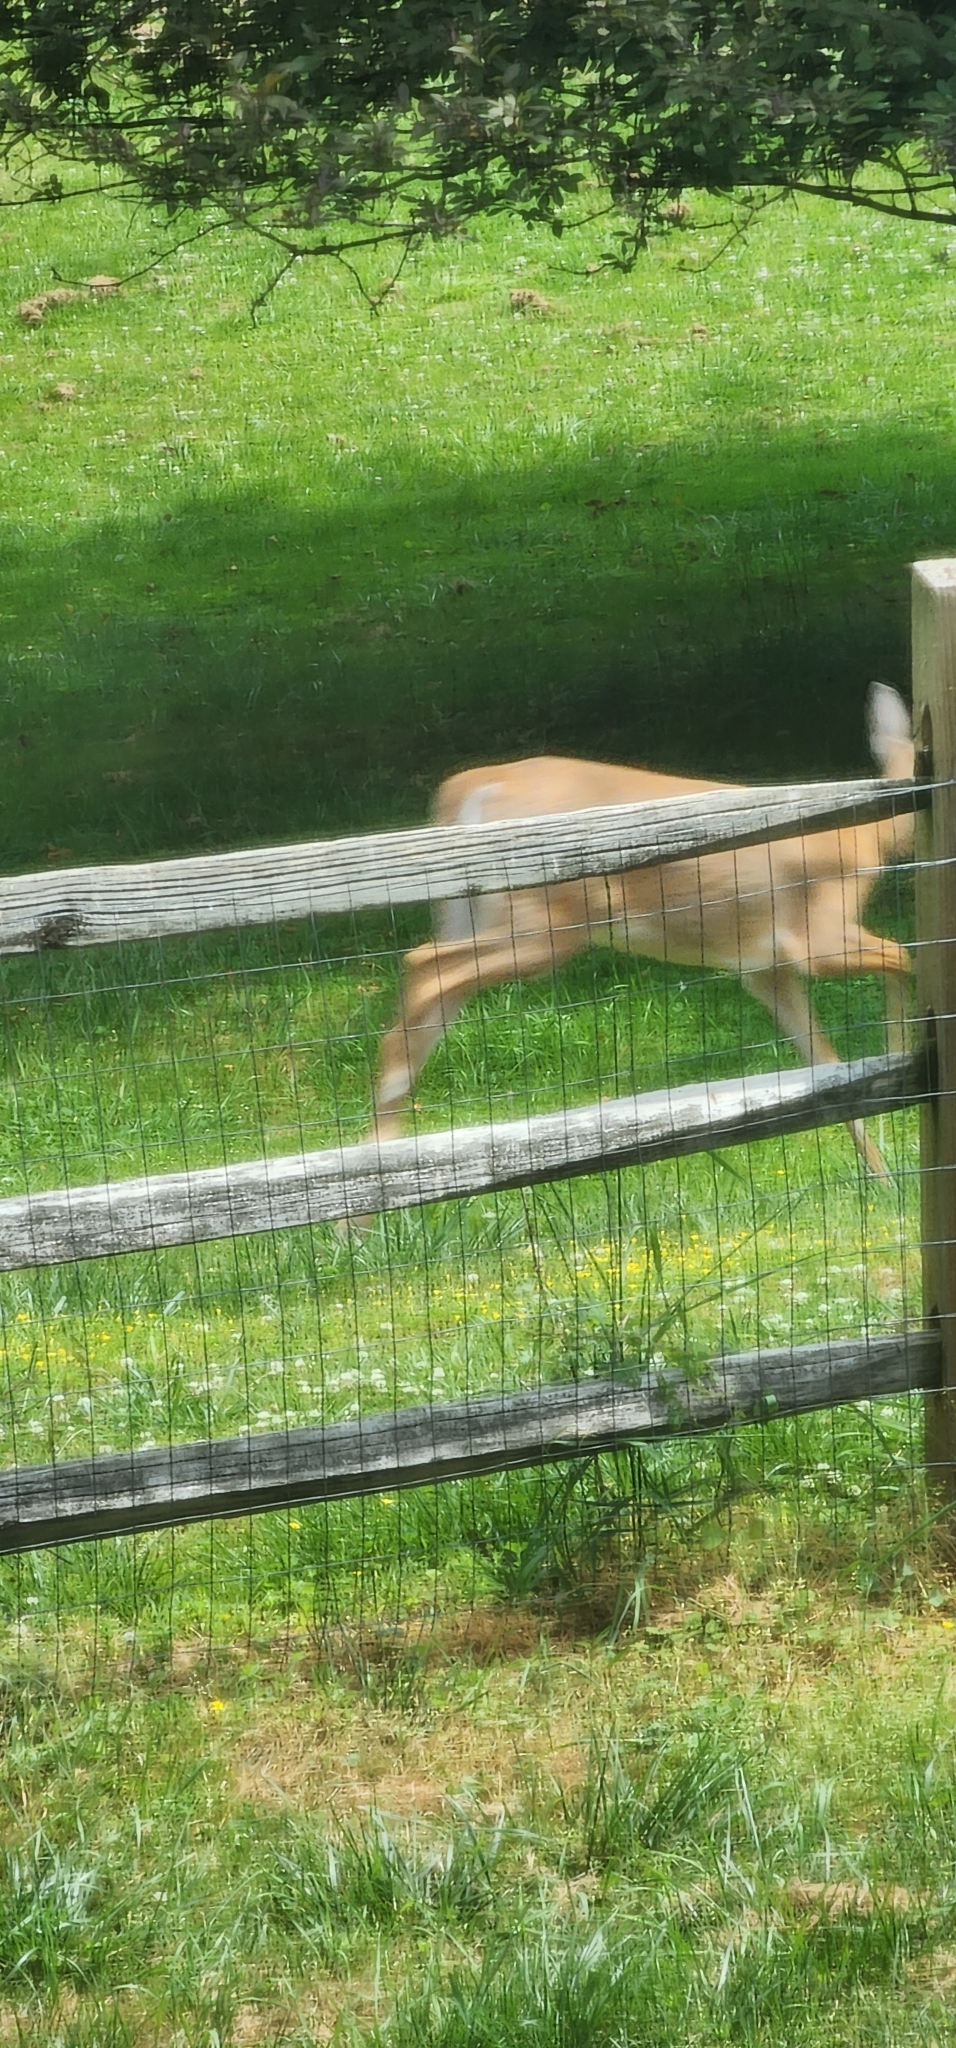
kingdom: Animalia
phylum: Chordata
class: Mammalia
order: Artiodactyla
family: Cervidae
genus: Odocoileus
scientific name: Odocoileus virginianus
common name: White-tailed deer
